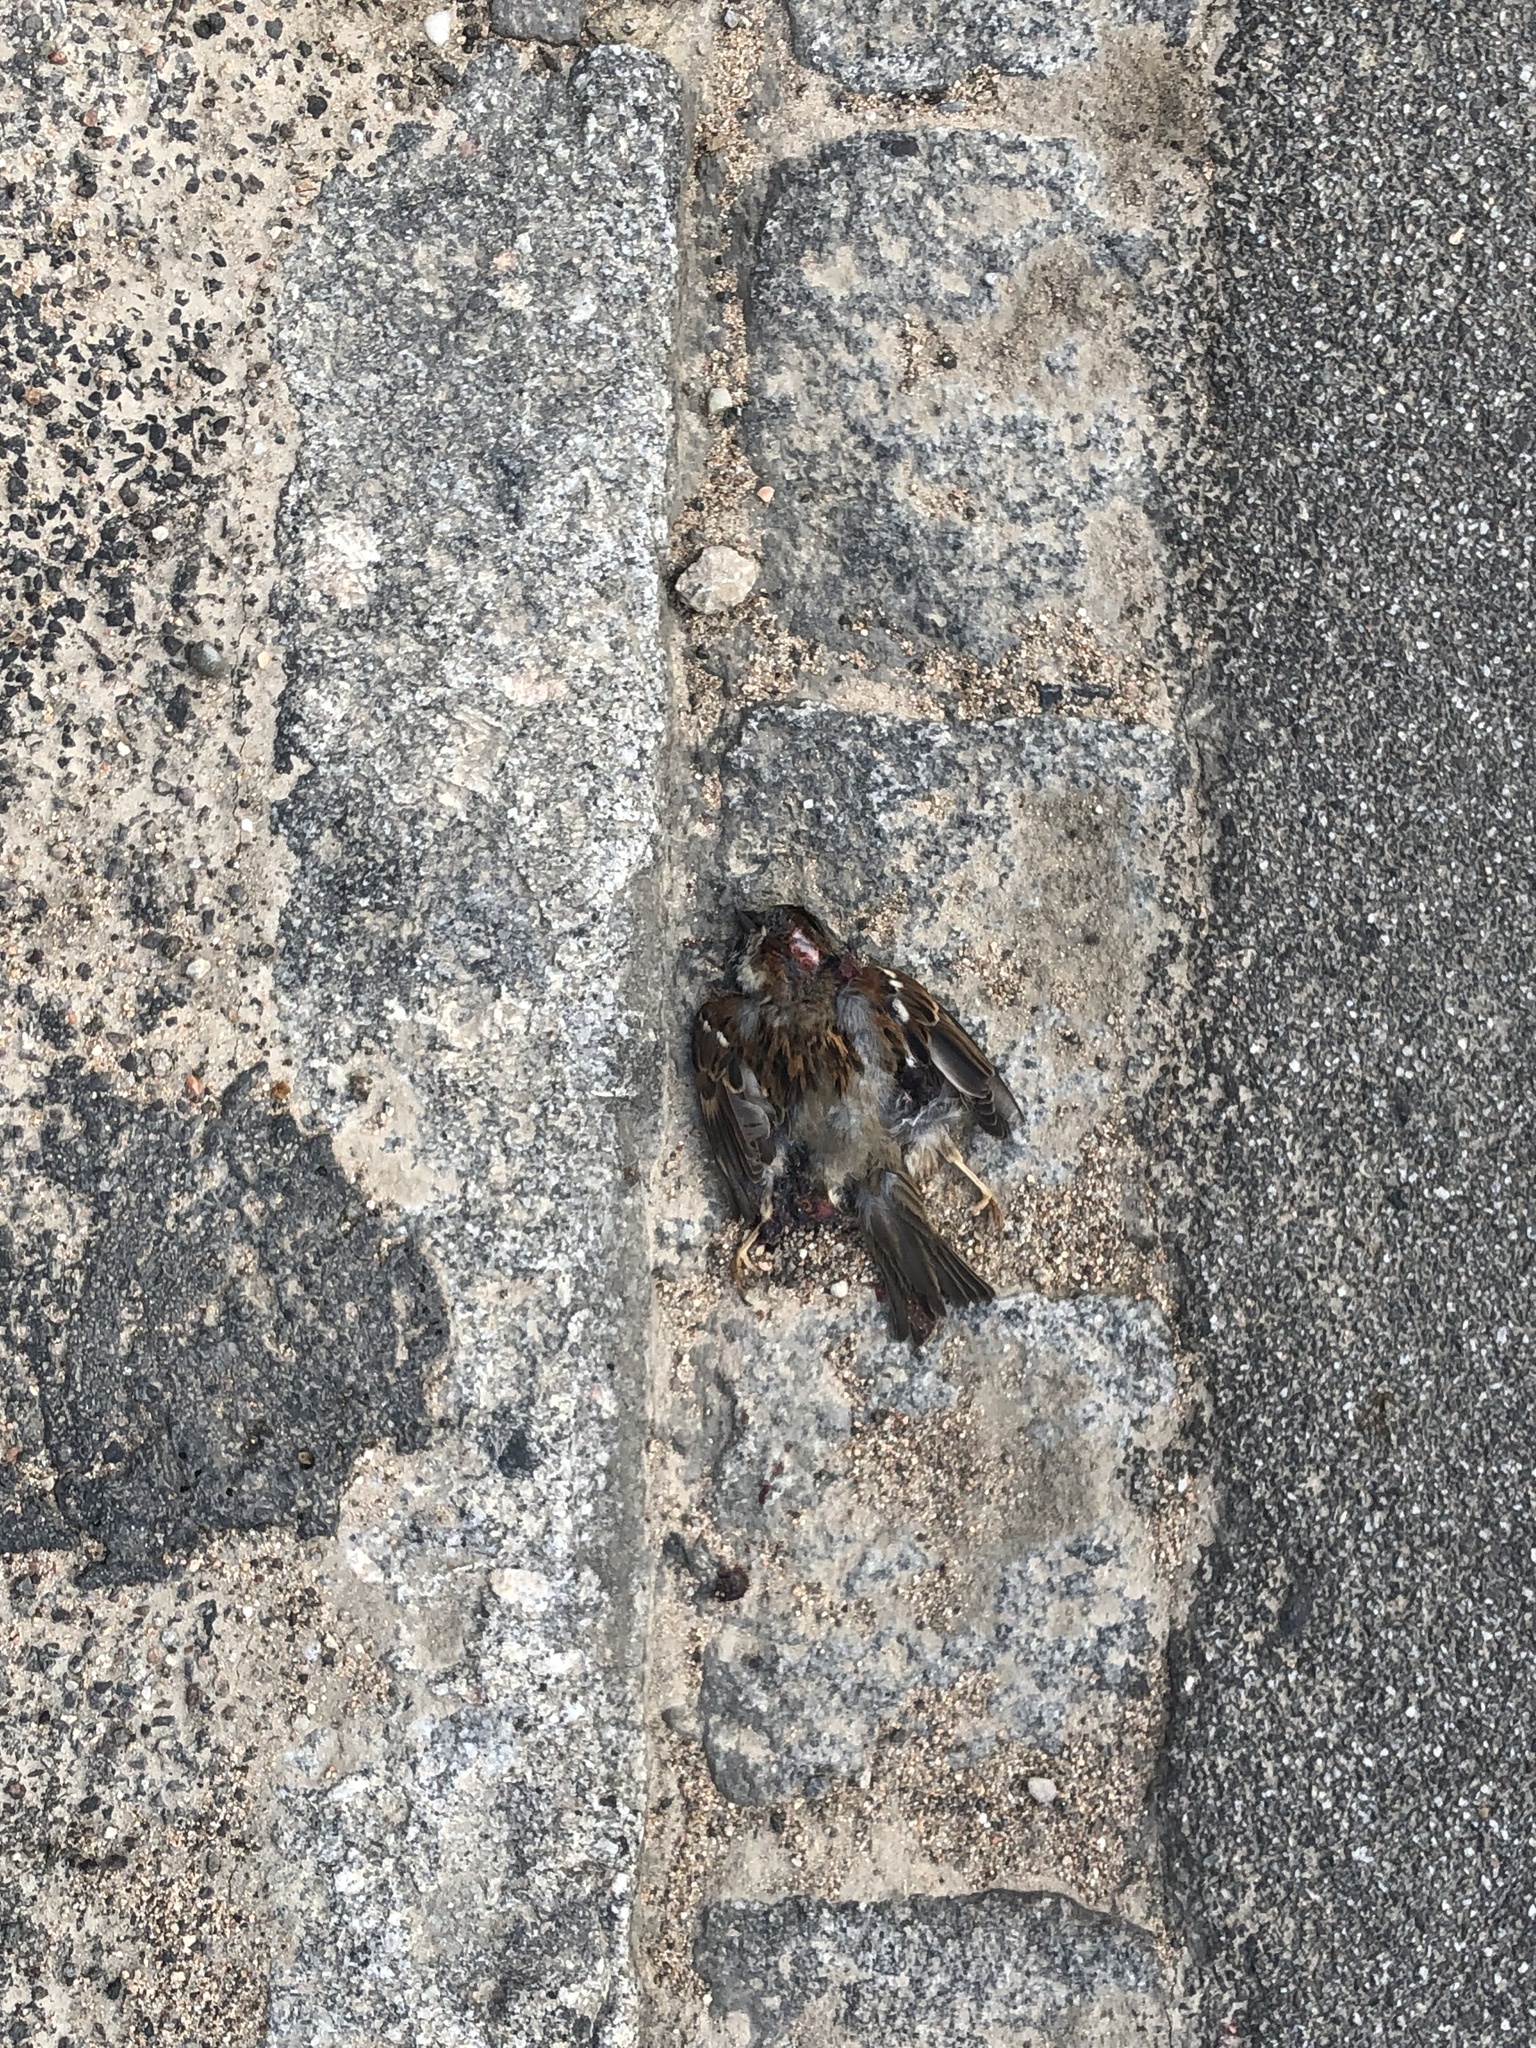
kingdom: Animalia
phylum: Chordata
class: Aves
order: Passeriformes
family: Passeridae
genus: Passer
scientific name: Passer domesticus
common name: House sparrow
